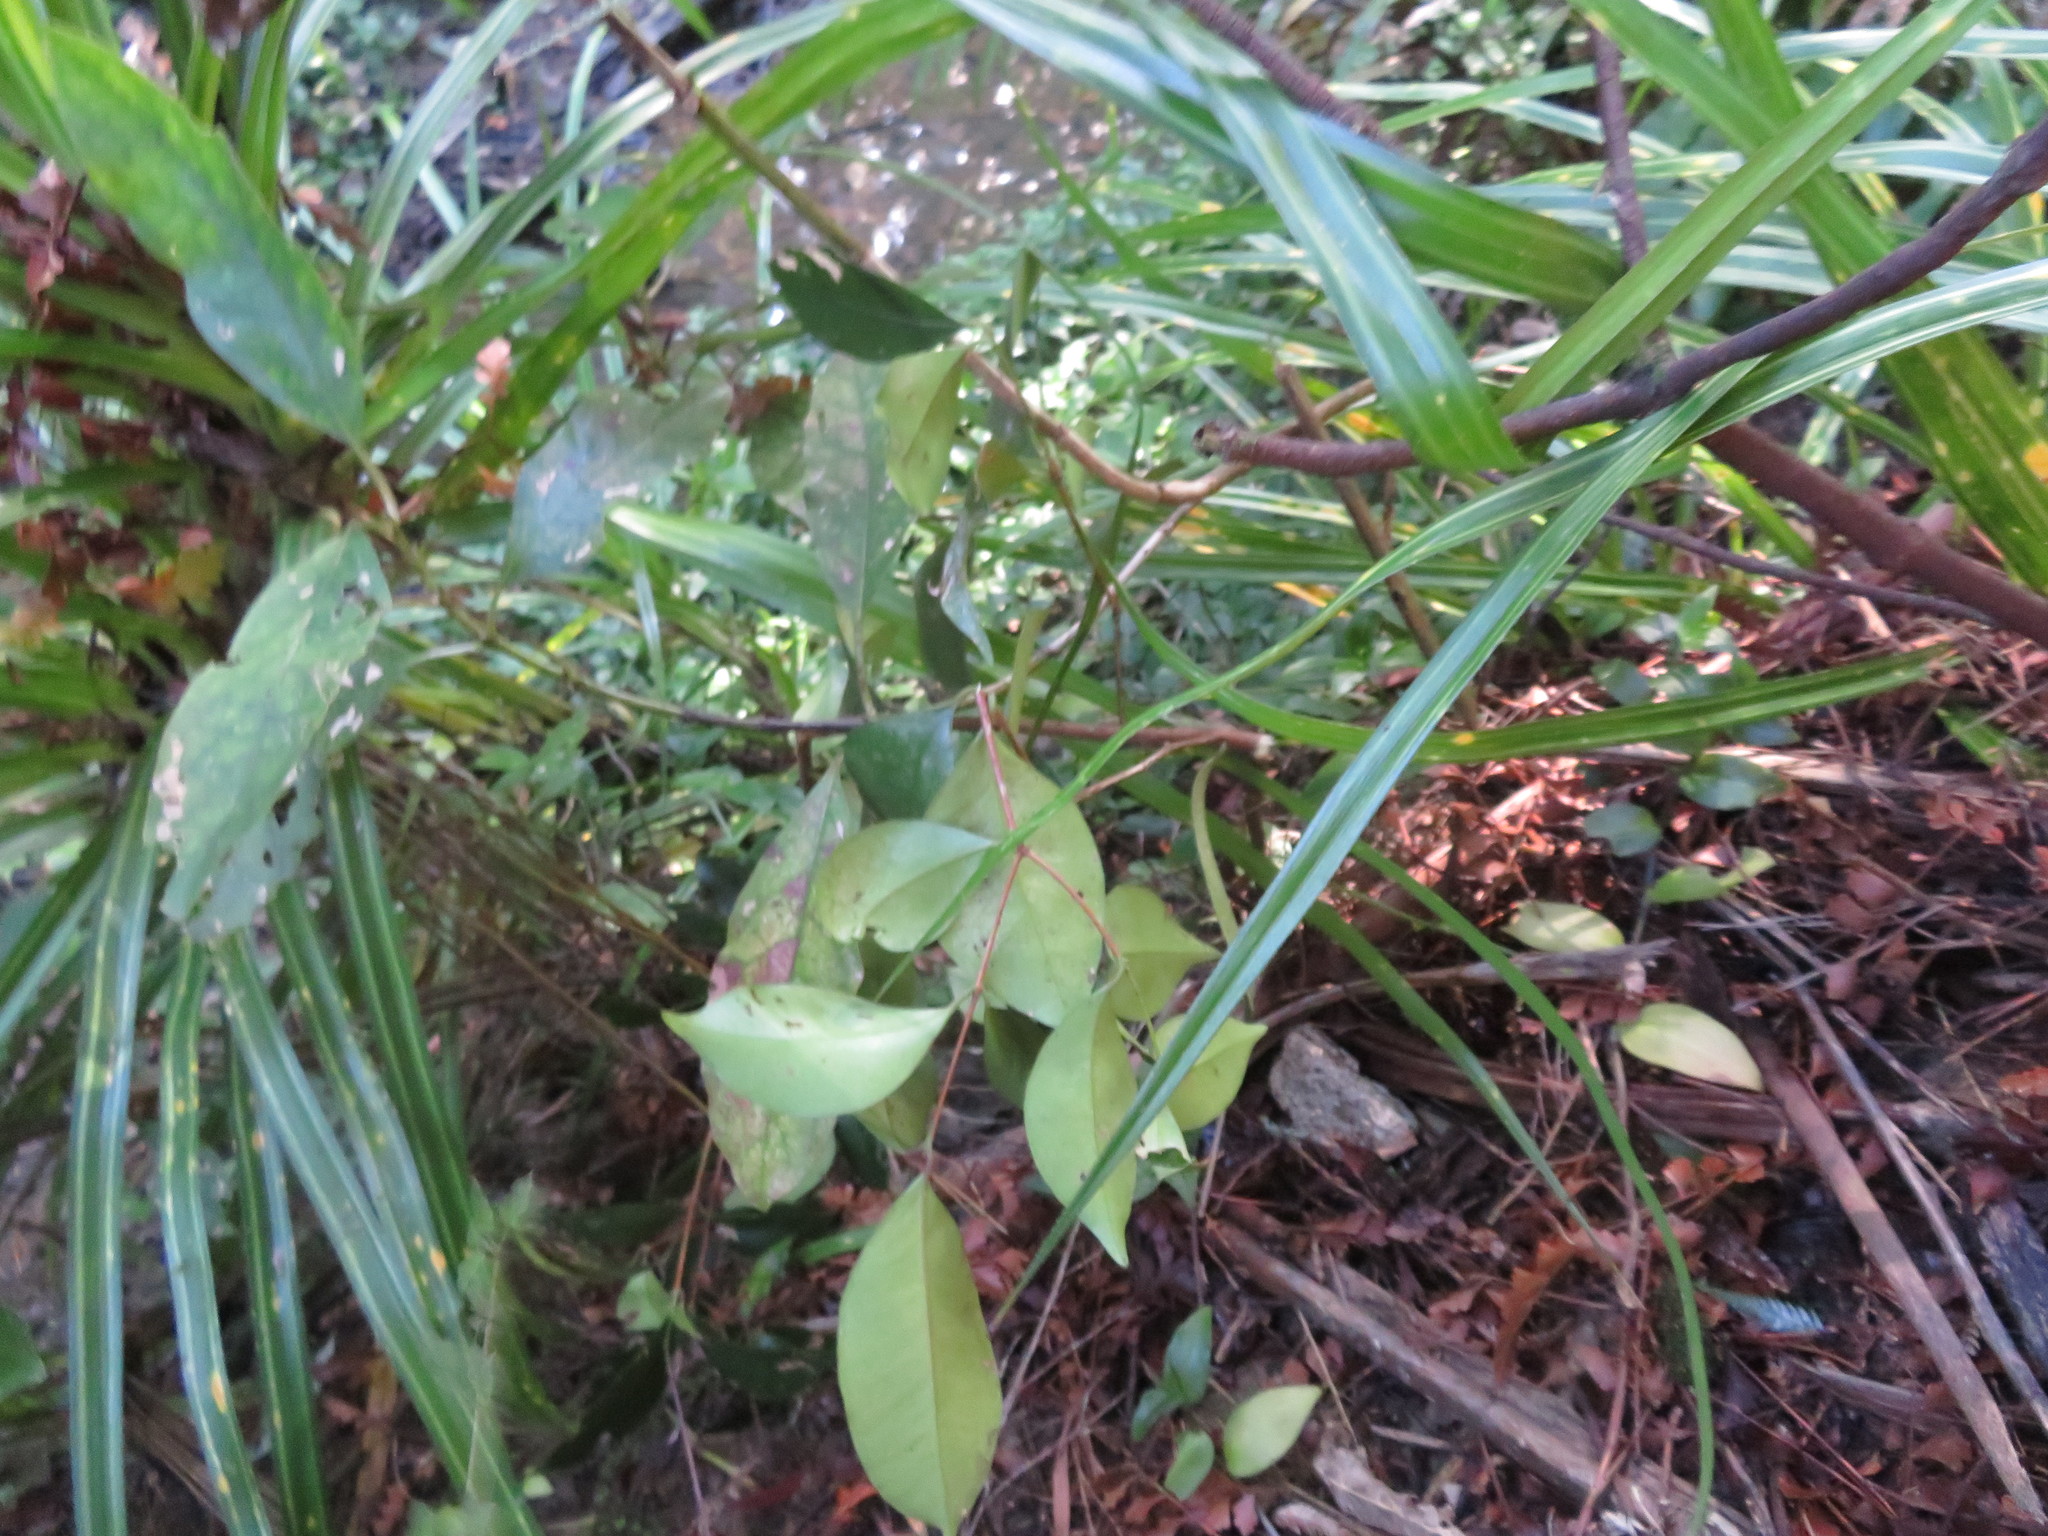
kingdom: Plantae
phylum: Tracheophyta
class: Magnoliopsida
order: Myrtales
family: Myrtaceae
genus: Syzygium
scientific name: Syzygium smithii
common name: Lilly-pilly
